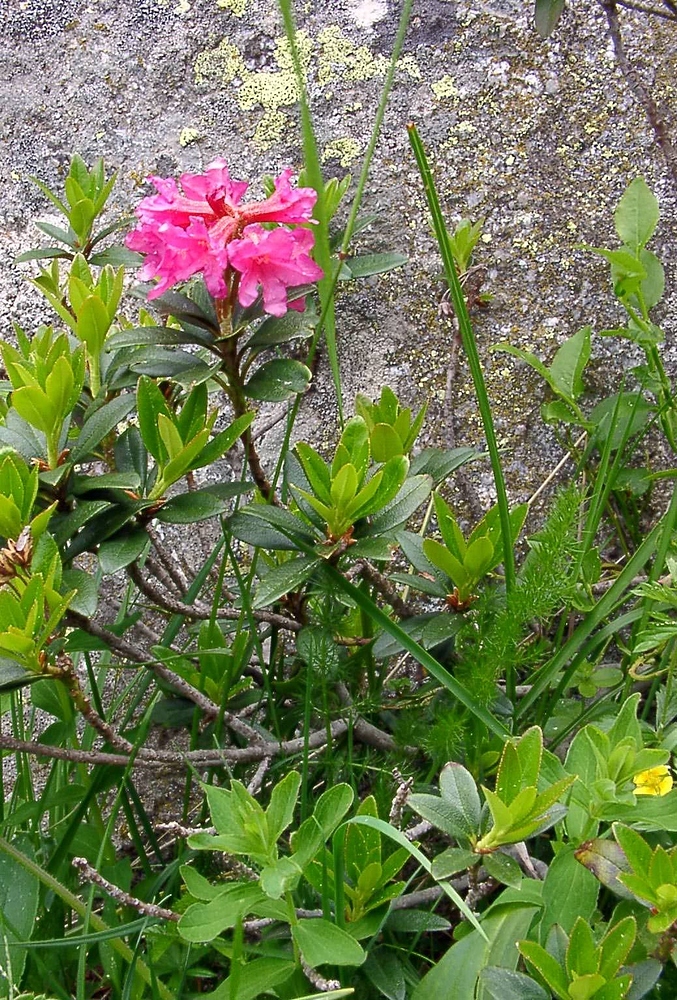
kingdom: Plantae
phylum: Tracheophyta
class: Magnoliopsida
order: Ericales
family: Ericaceae
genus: Rhododendron
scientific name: Rhododendron ferrugineum
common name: Alpenrose
